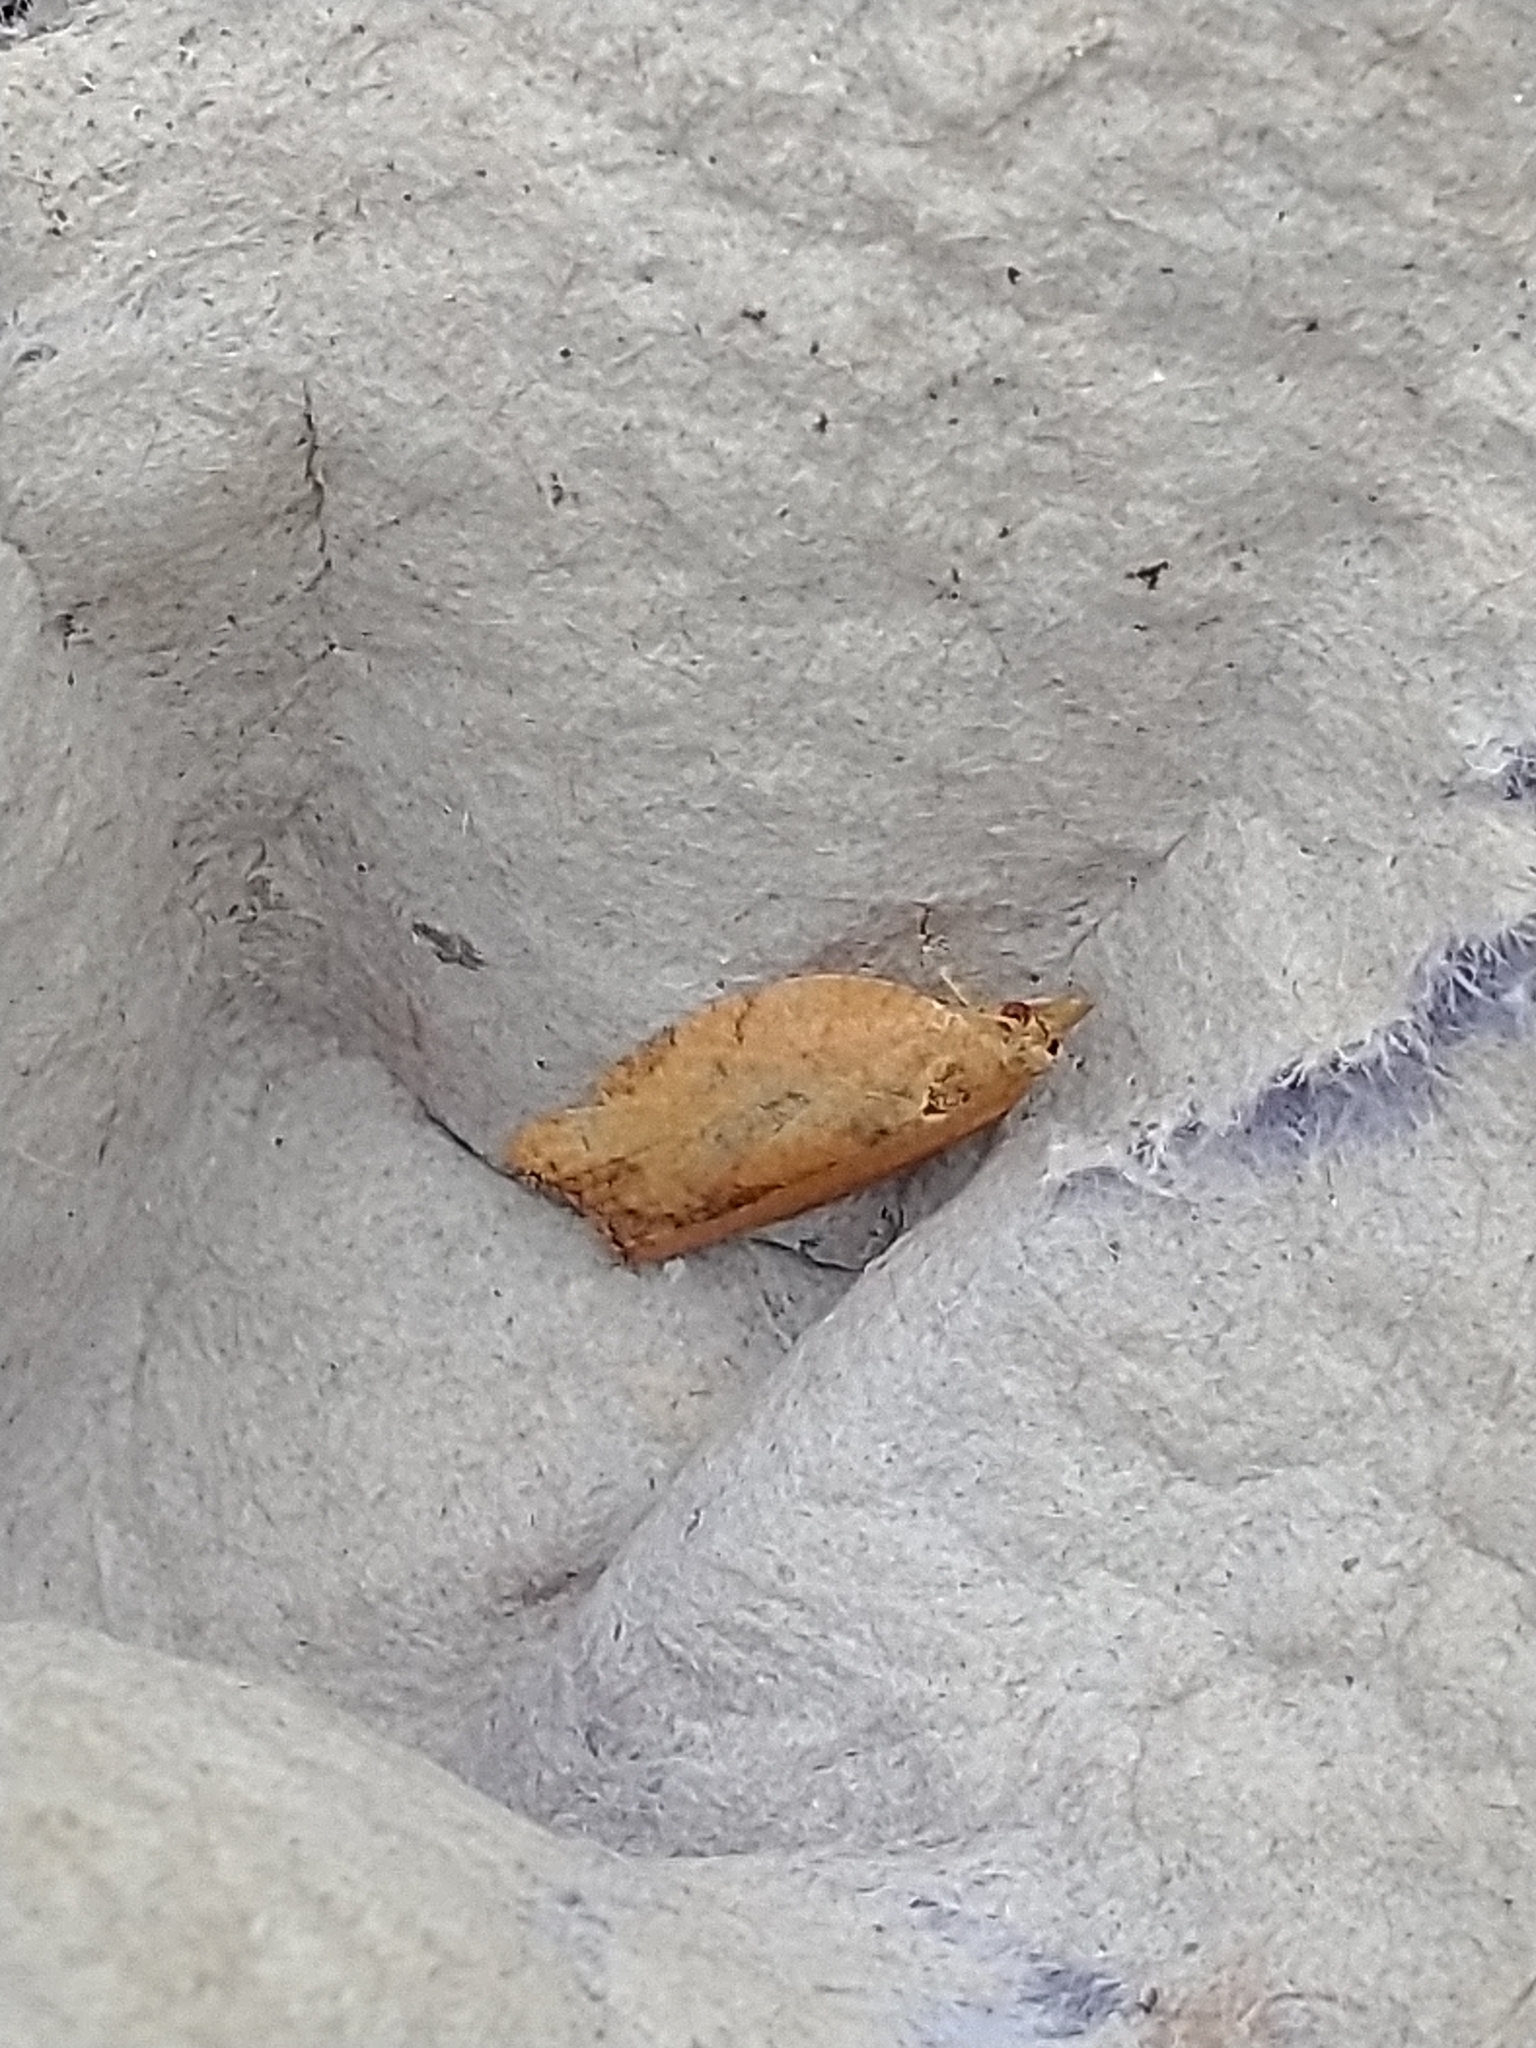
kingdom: Animalia
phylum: Arthropoda
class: Insecta
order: Lepidoptera
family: Tortricidae
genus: Epiphyas
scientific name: Epiphyas postvittana
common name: Light brown apple moth
